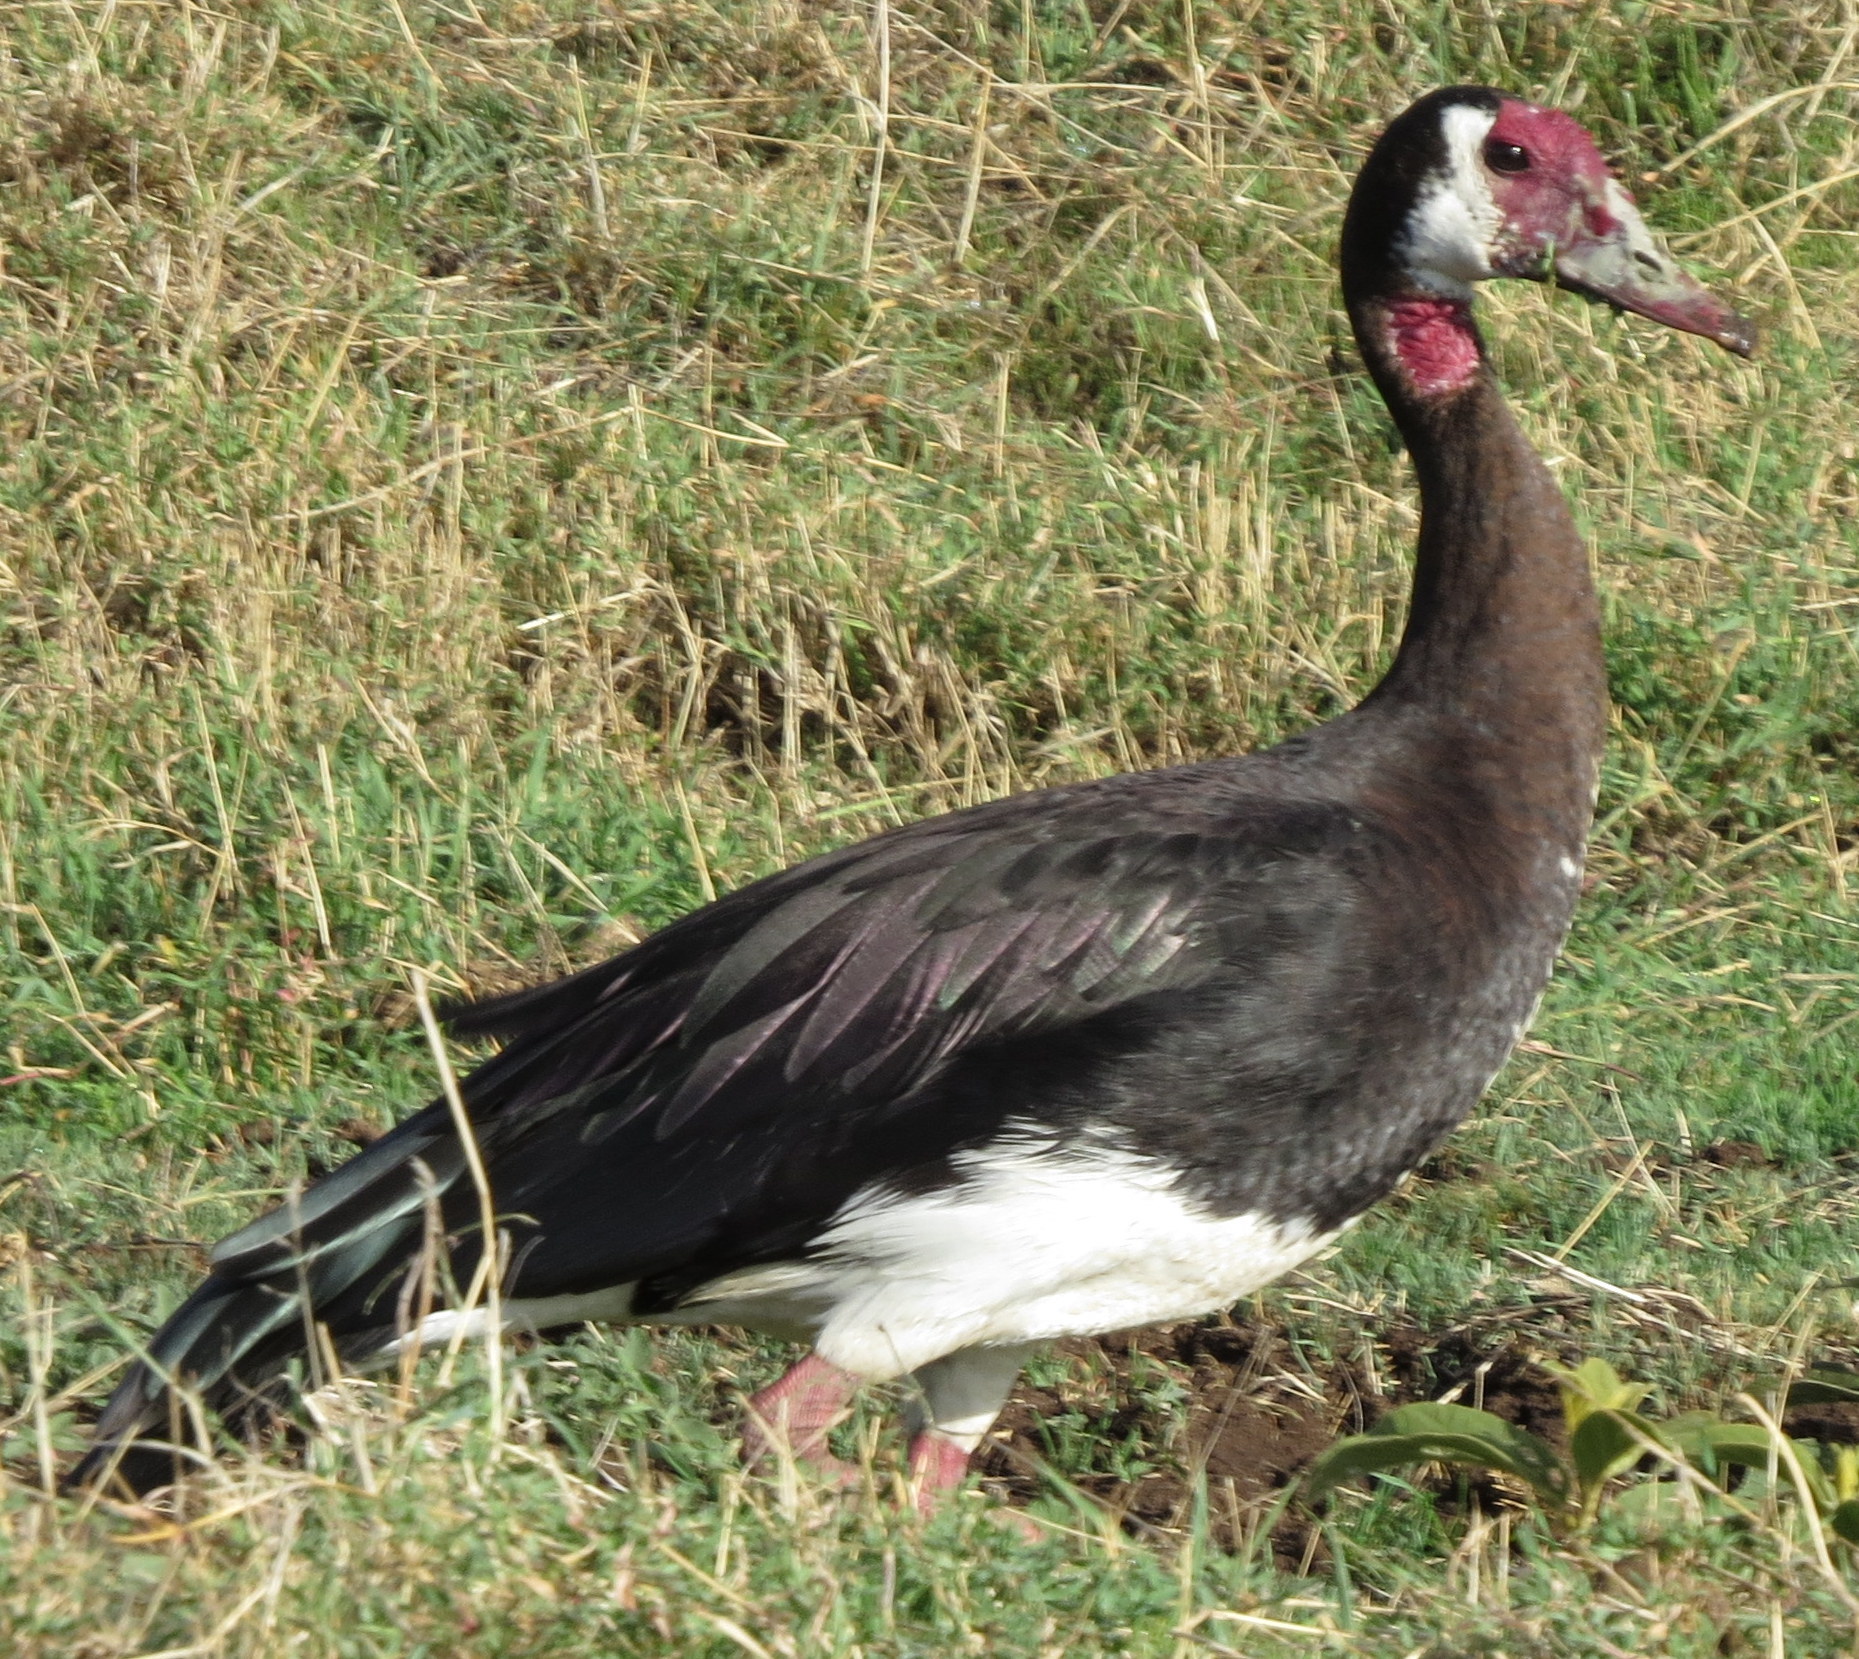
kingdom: Animalia
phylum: Chordata
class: Aves
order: Anseriformes
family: Anatidae
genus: Plectropterus
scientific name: Plectropterus gambensis
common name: Spur-winged goose
